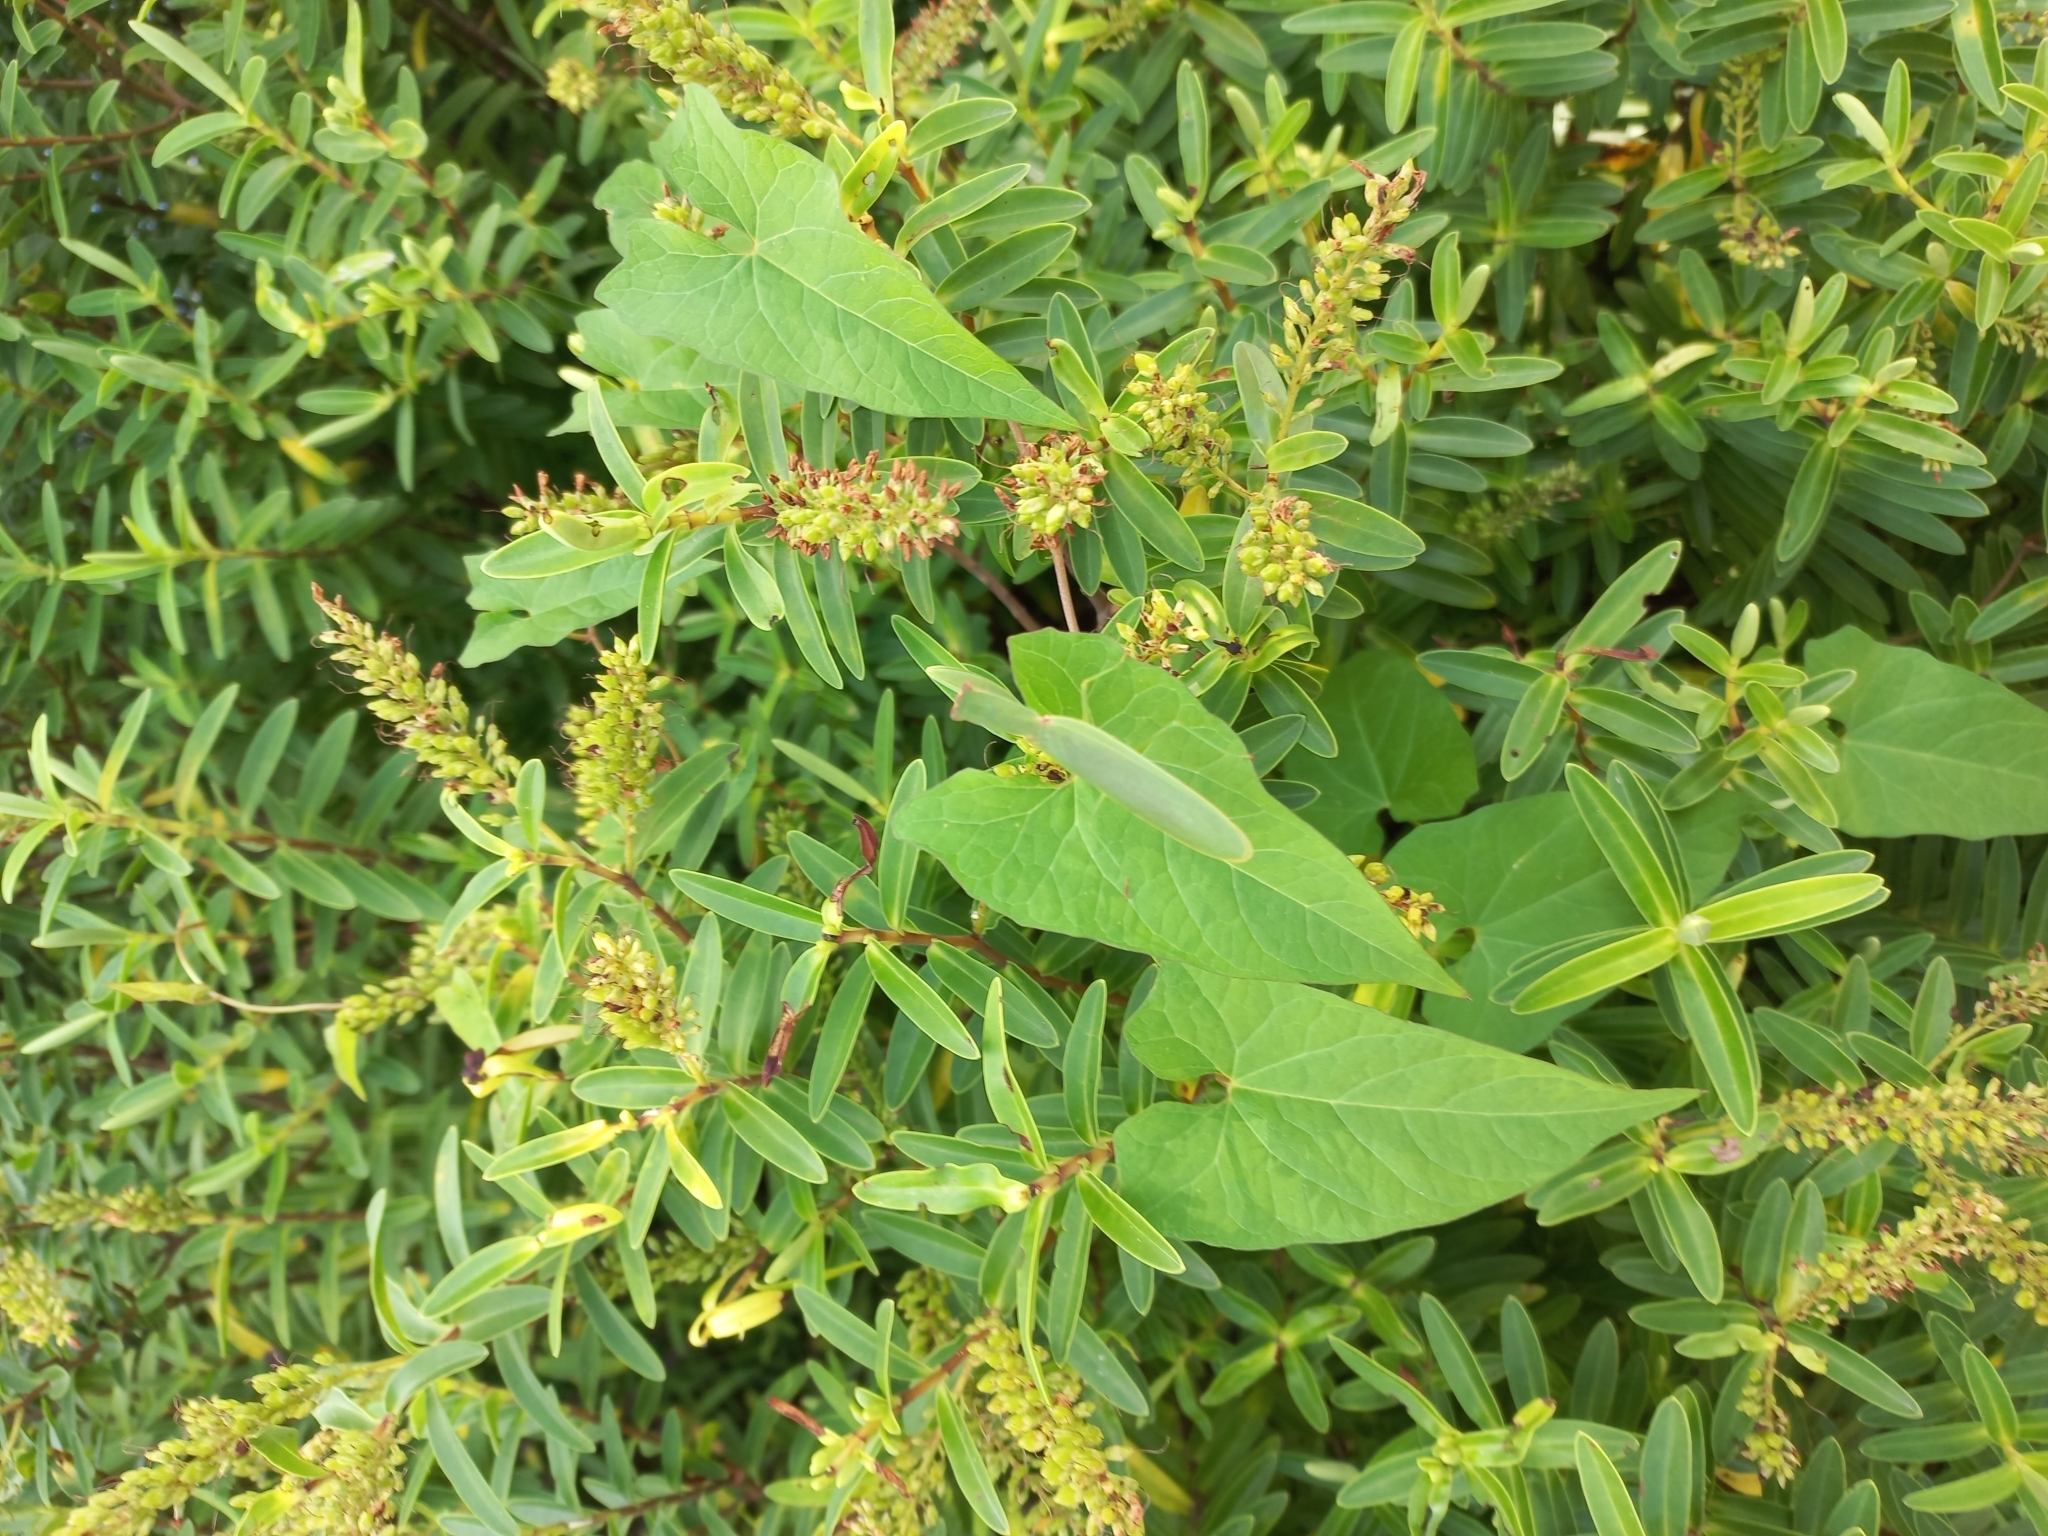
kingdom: Animalia
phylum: Arthropoda
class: Insecta
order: Mantodea
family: Mantidae
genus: Orthodera
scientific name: Orthodera novaezealandiae
